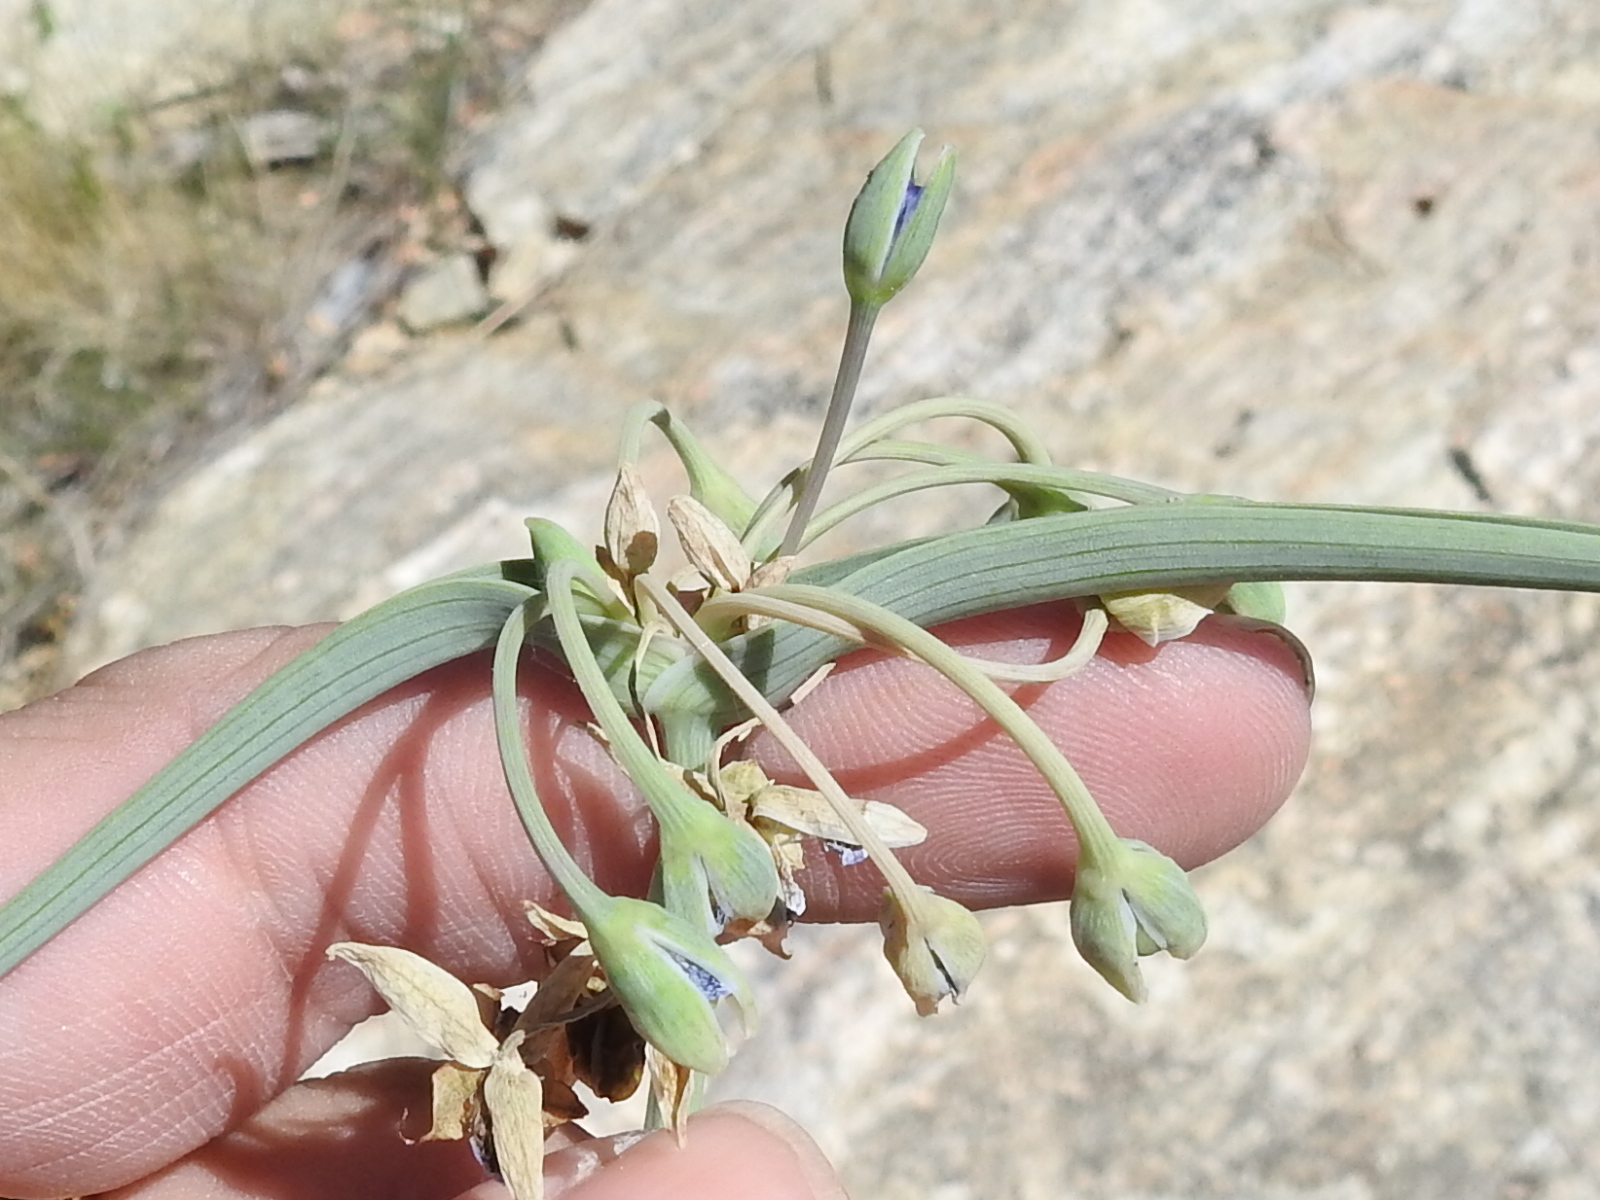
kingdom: Plantae
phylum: Tracheophyta
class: Liliopsida
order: Commelinales
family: Commelinaceae
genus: Tradescantia
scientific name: Tradescantia occidentalis
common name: Prairie spiderwort
